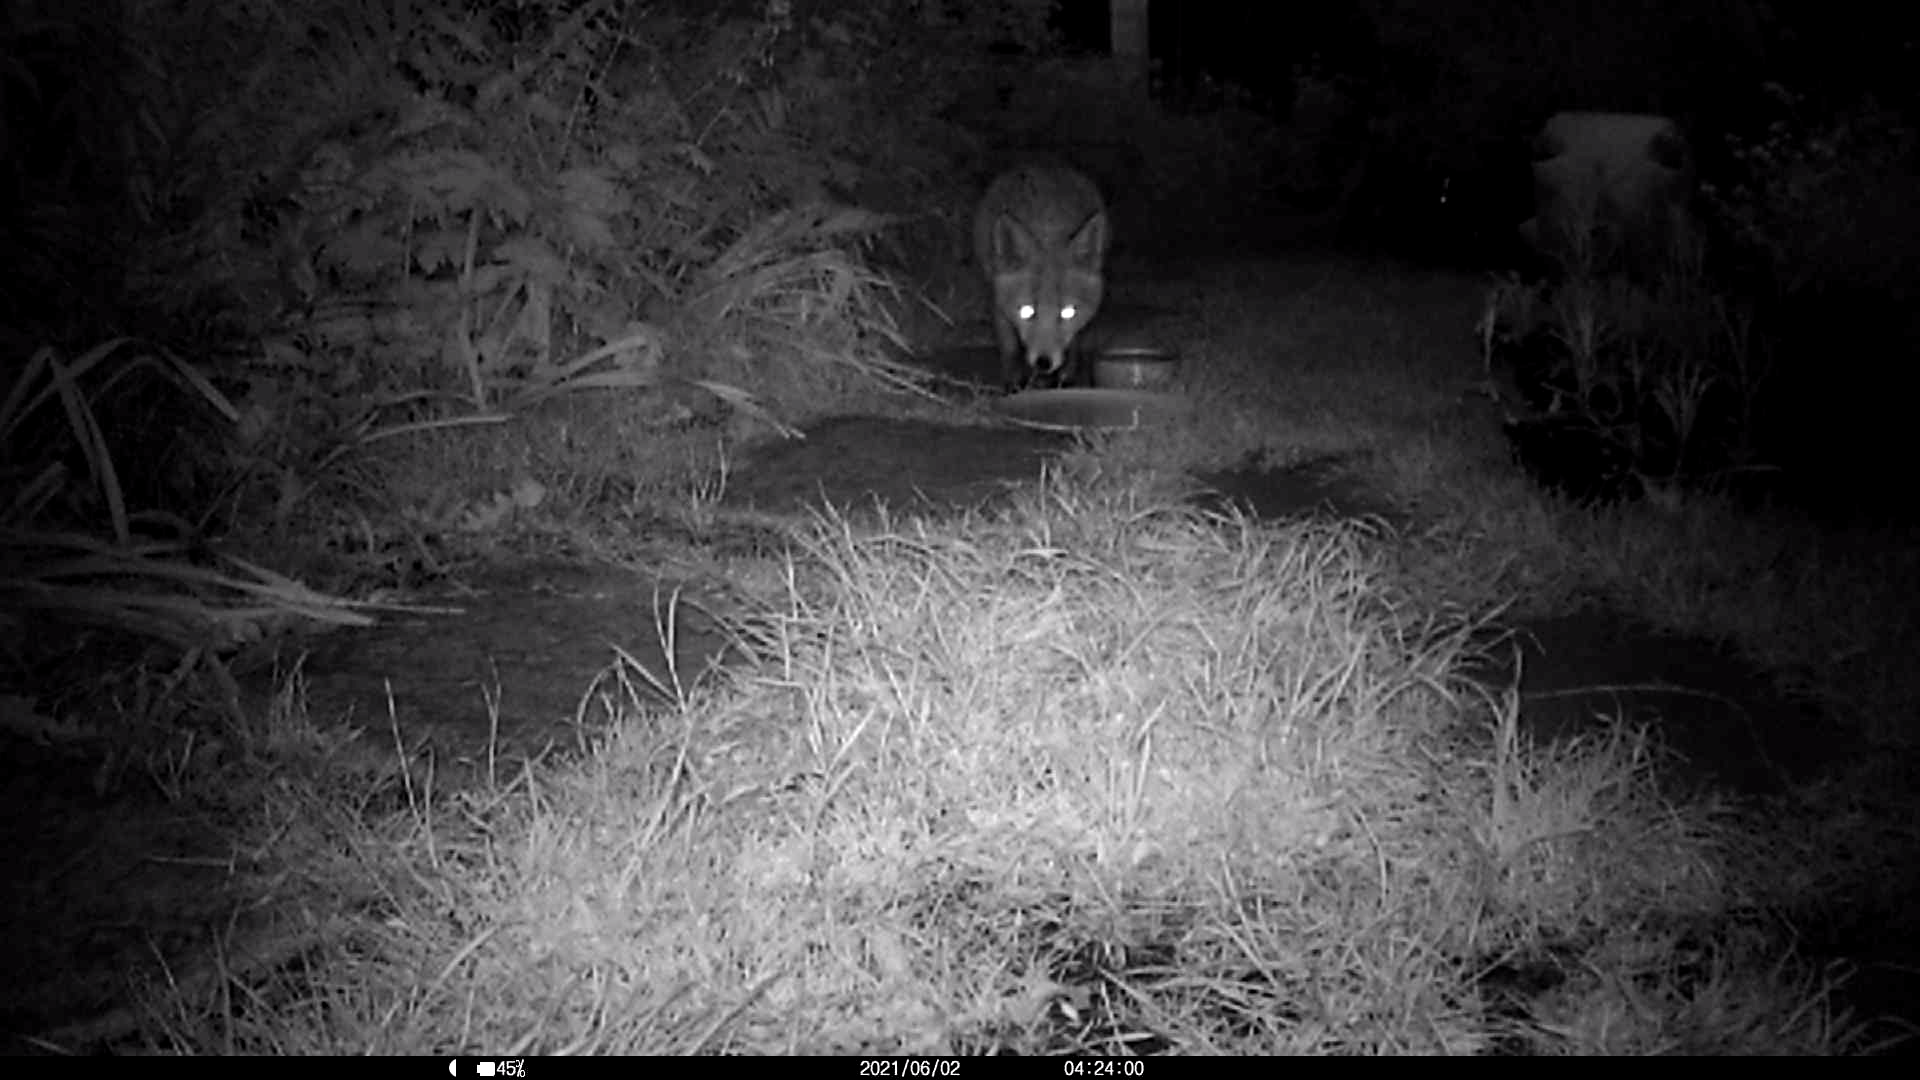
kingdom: Animalia
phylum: Chordata
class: Mammalia
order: Carnivora
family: Canidae
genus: Vulpes
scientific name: Vulpes vulpes
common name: Red fox
